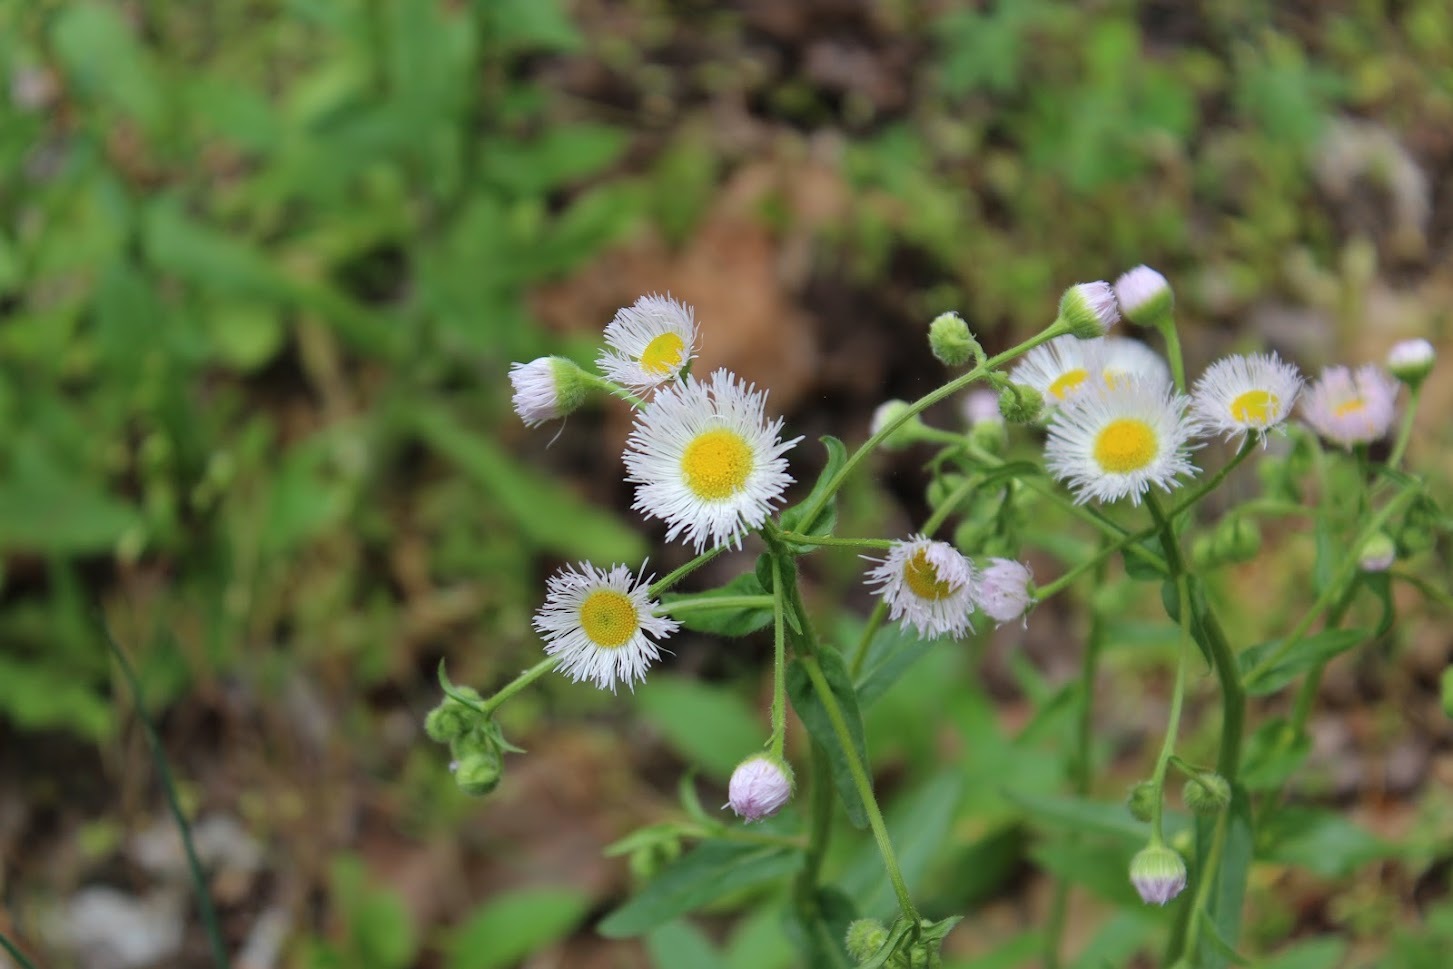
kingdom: Plantae
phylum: Tracheophyta
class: Magnoliopsida
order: Asterales
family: Asteraceae
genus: Erigeron
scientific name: Erigeron philadelphicus
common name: Robin's-plantain
